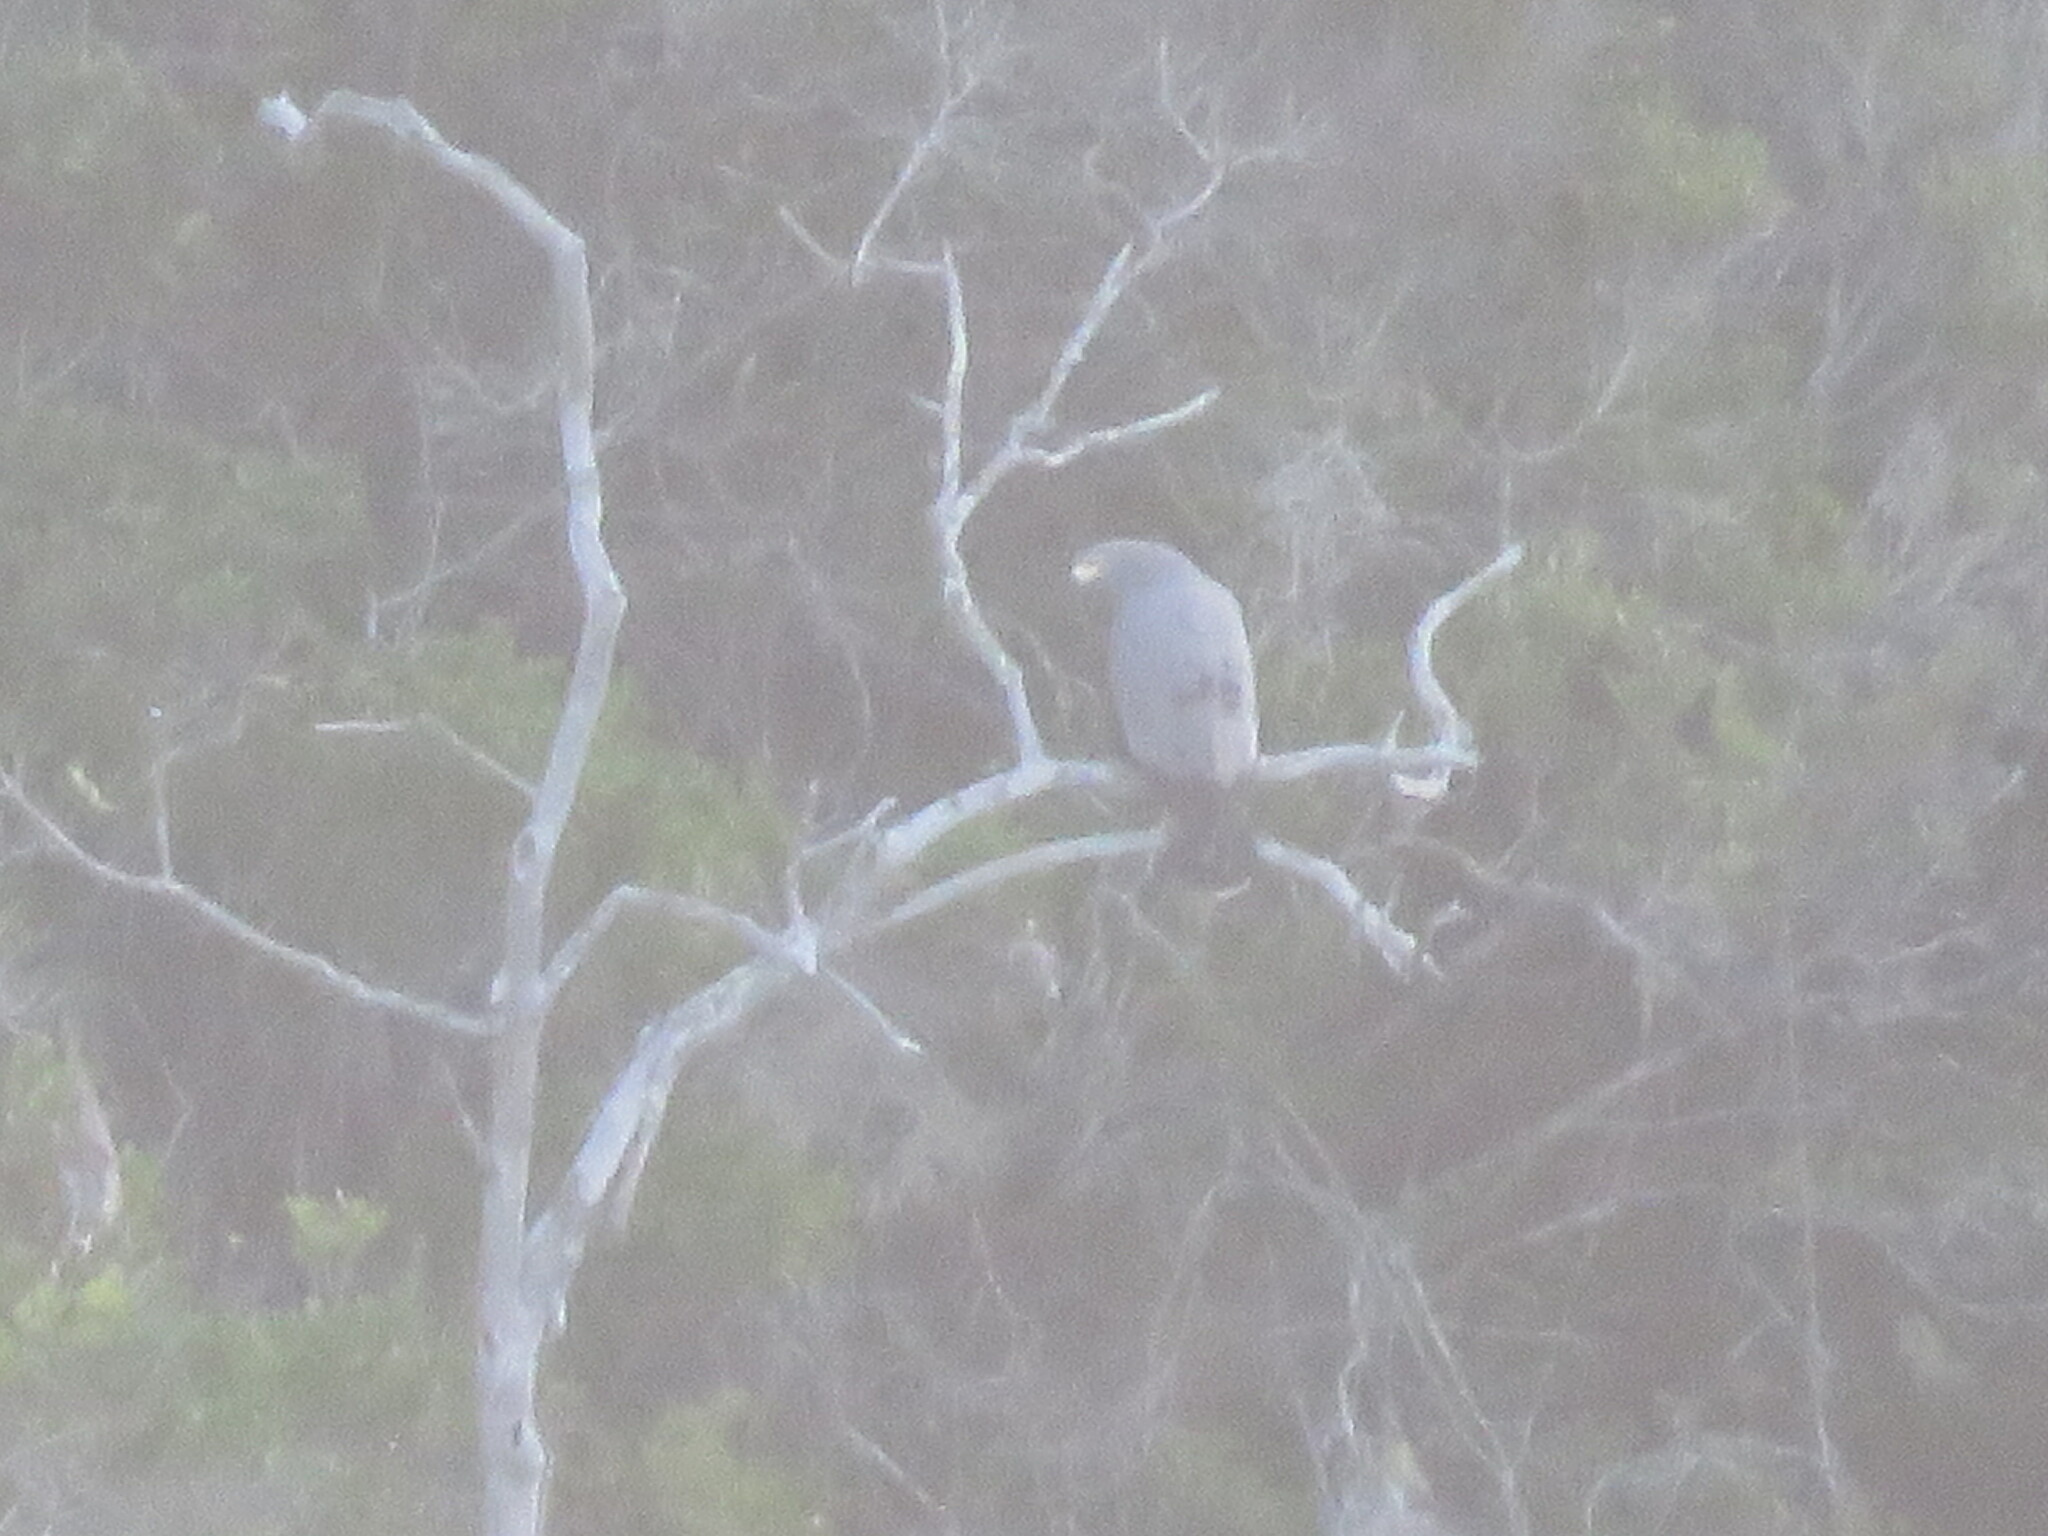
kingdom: Animalia
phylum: Chordata
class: Aves
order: Accipitriformes
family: Accipitridae
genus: Polyboroides
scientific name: Polyboroides typus
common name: African harrier-hawk
